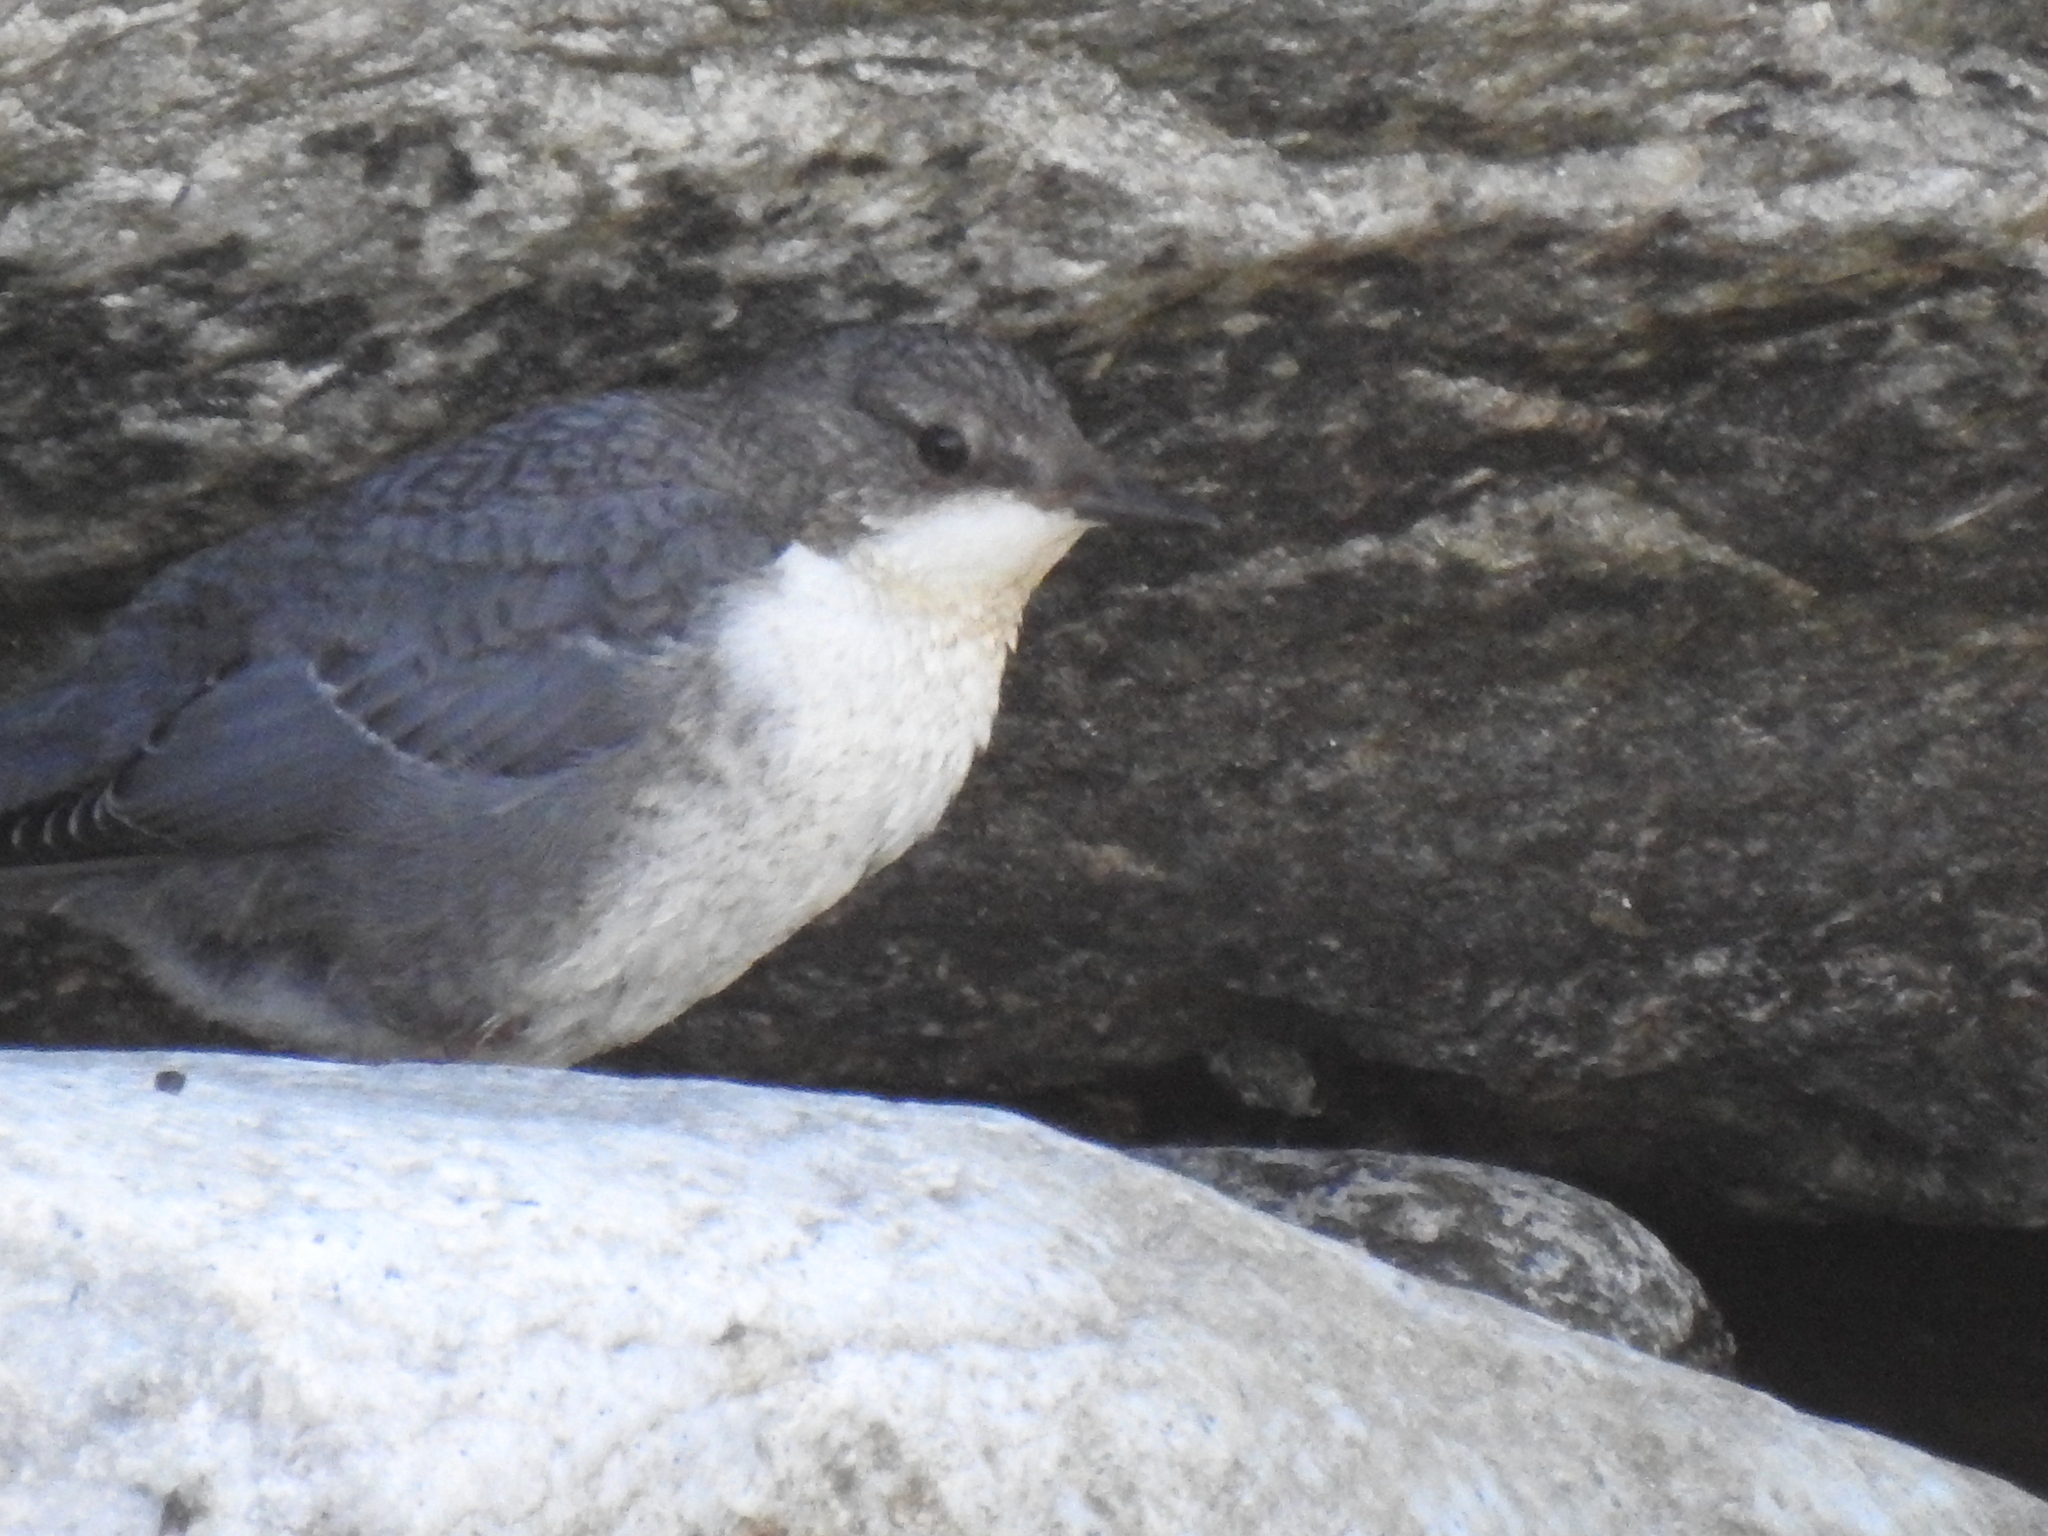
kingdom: Animalia
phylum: Chordata
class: Aves
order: Passeriformes
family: Cinclidae
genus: Cinclus
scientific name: Cinclus cinclus
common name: White-throated dipper
